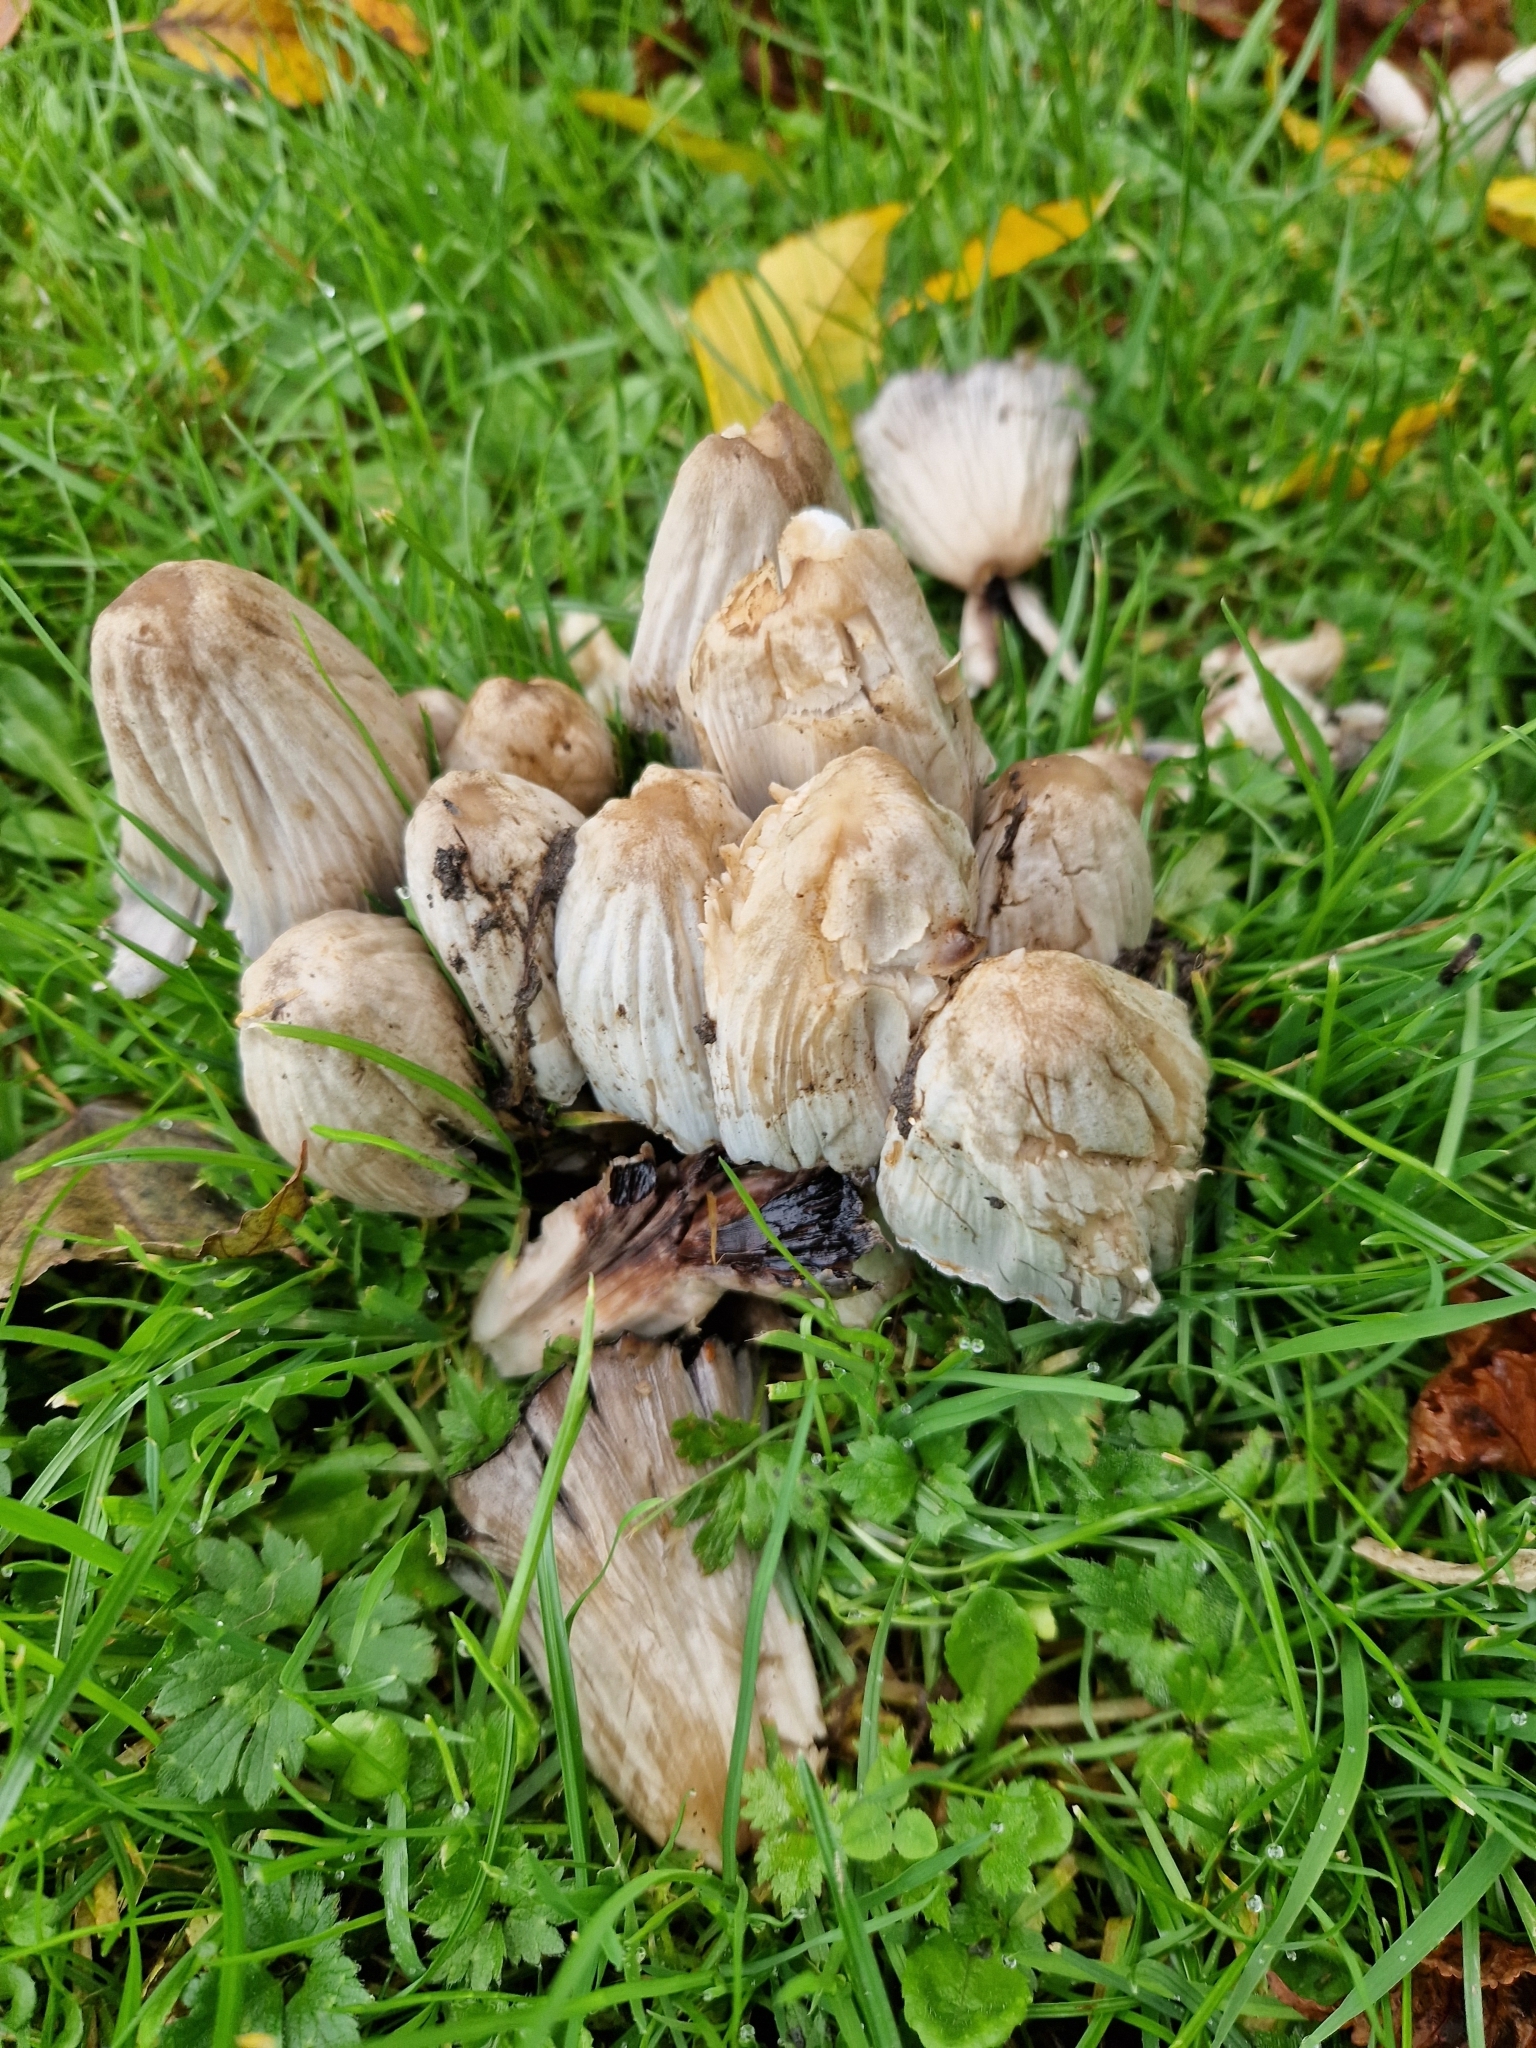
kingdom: Fungi
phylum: Basidiomycota
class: Agaricomycetes
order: Agaricales
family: Psathyrellaceae
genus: Coprinopsis
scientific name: Coprinopsis atramentaria
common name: Common ink-cap
